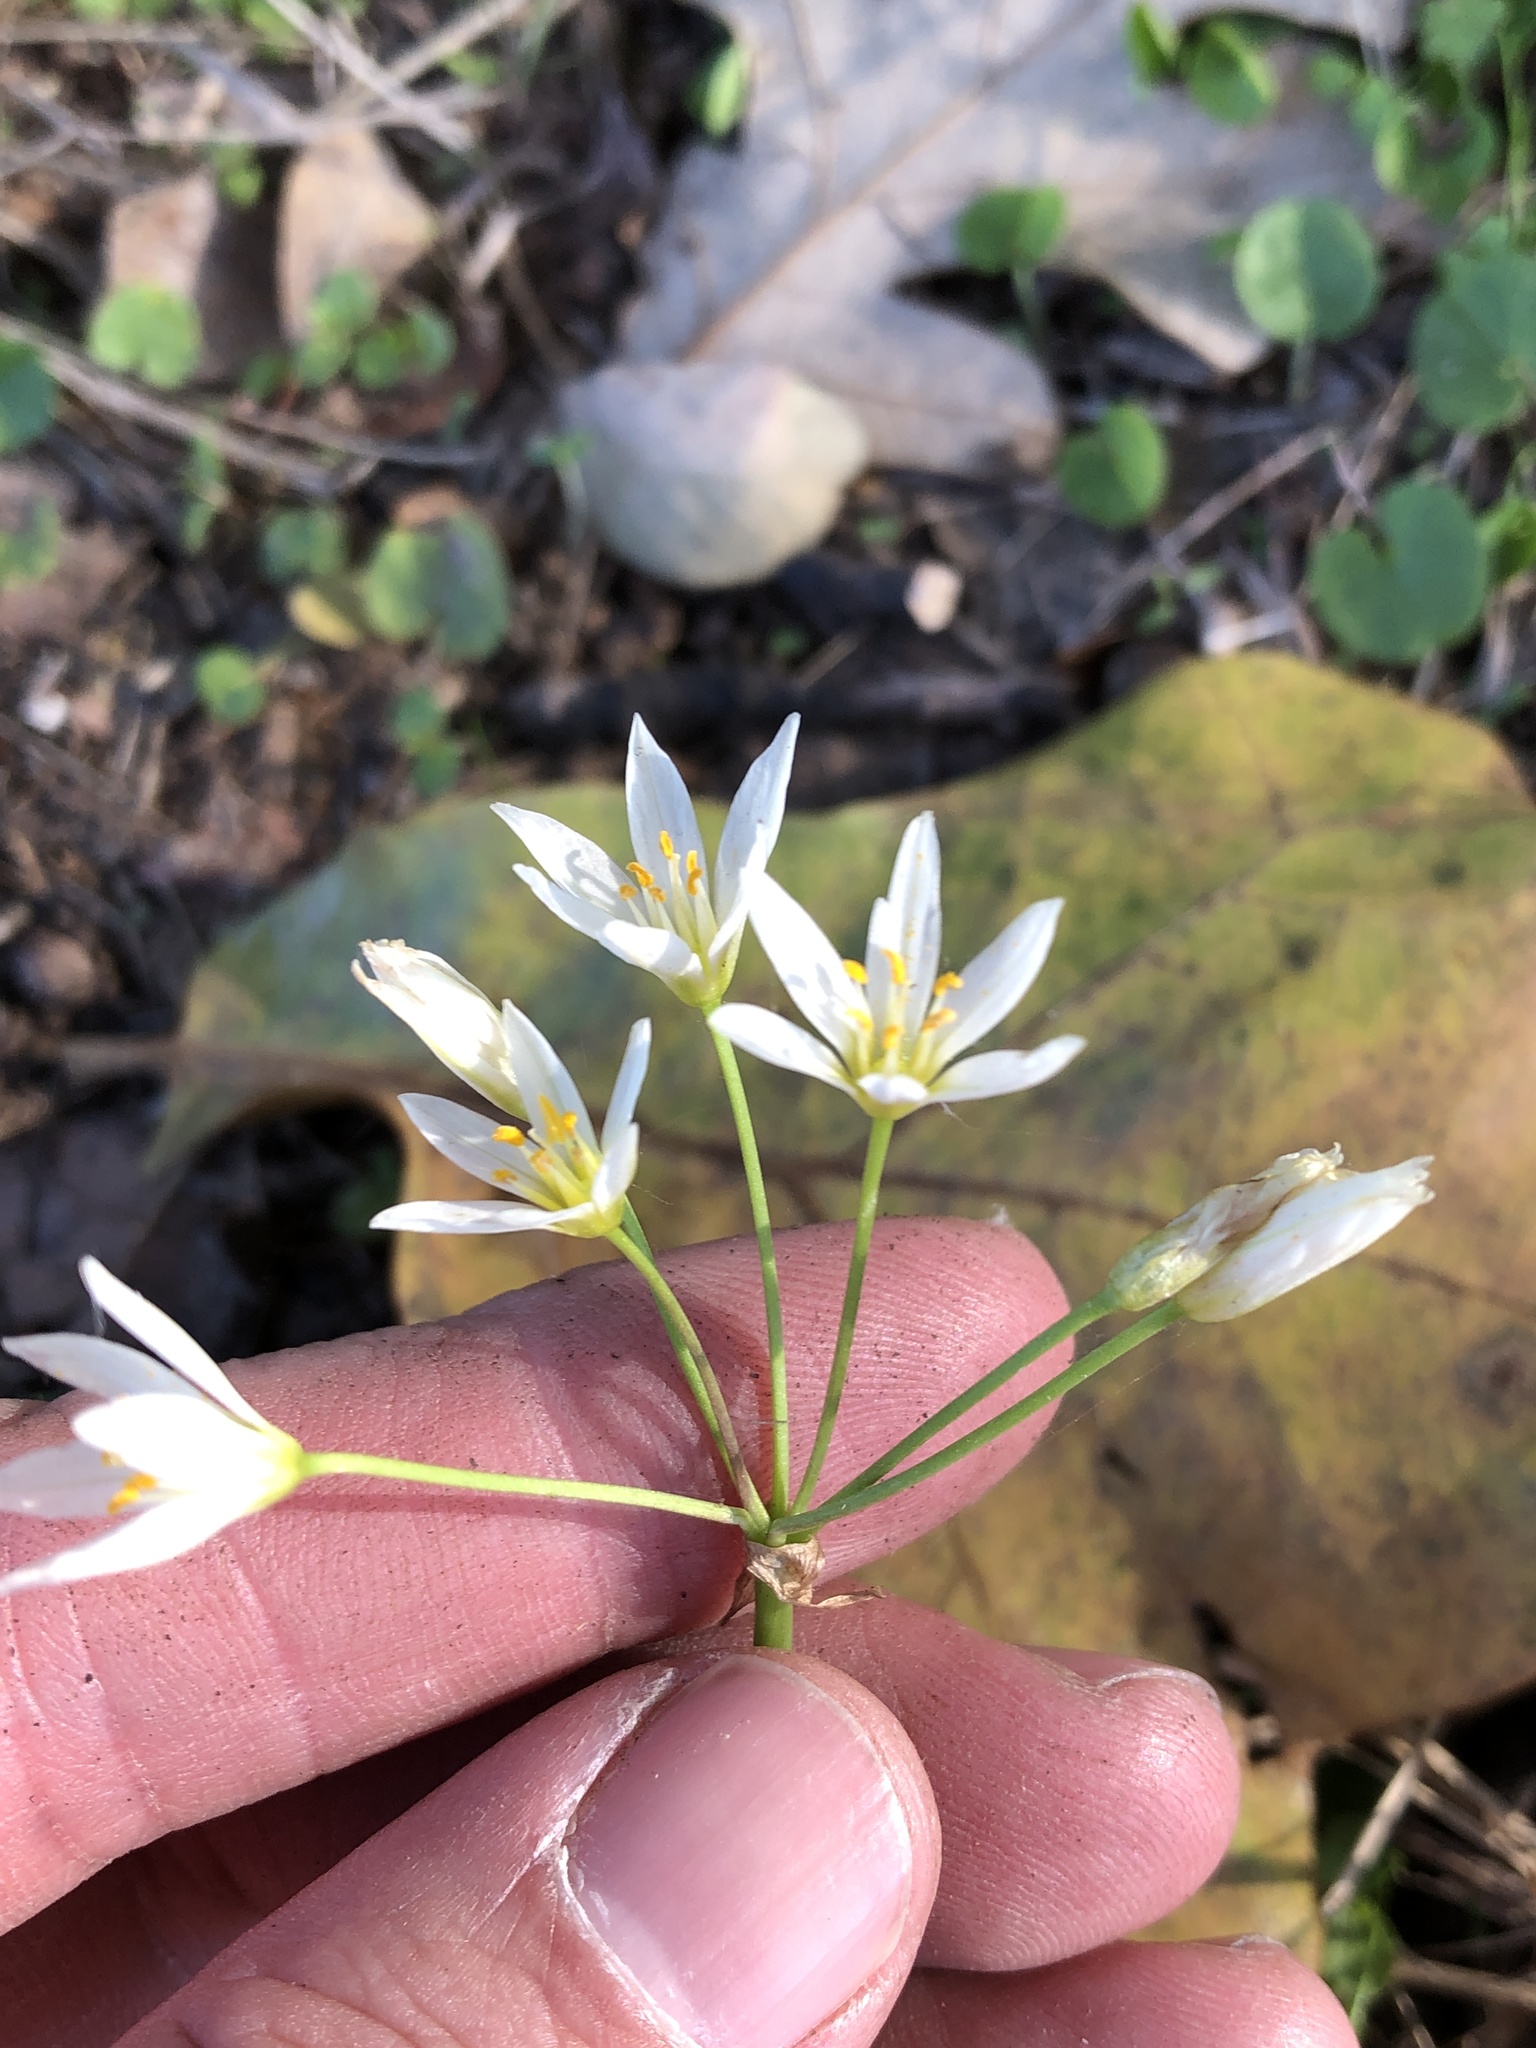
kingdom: Plantae
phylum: Tracheophyta
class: Liliopsida
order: Asparagales
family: Amaryllidaceae
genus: Nothoscordum
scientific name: Nothoscordum bivalve
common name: Crow-poison
